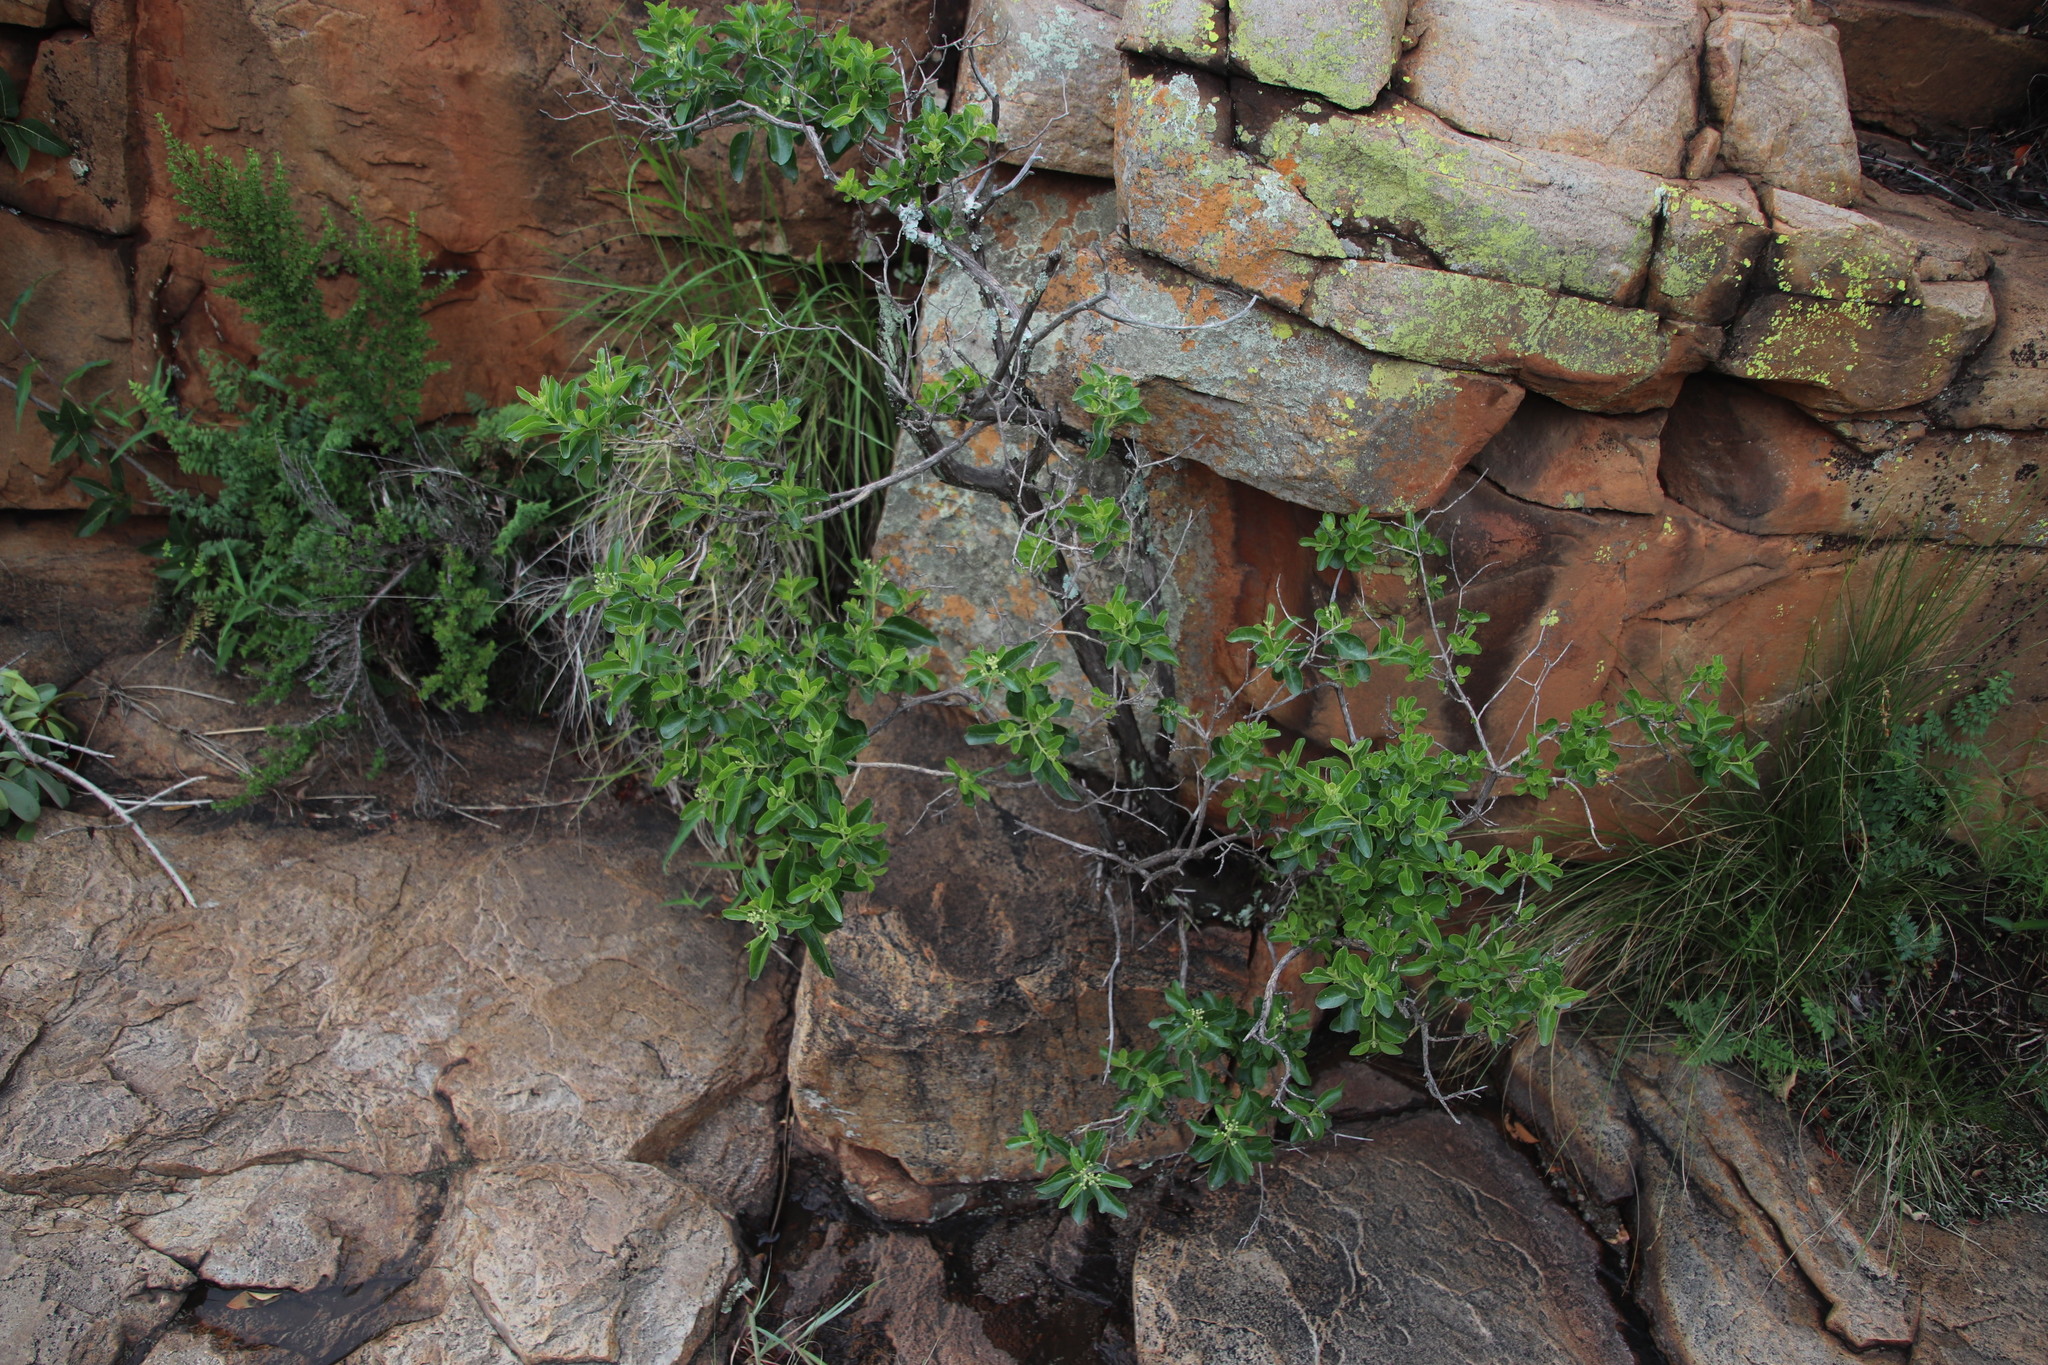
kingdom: Plantae
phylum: Tracheophyta
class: Magnoliopsida
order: Lamiales
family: Lamiaceae
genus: Volkameria
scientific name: Volkameria glabra
